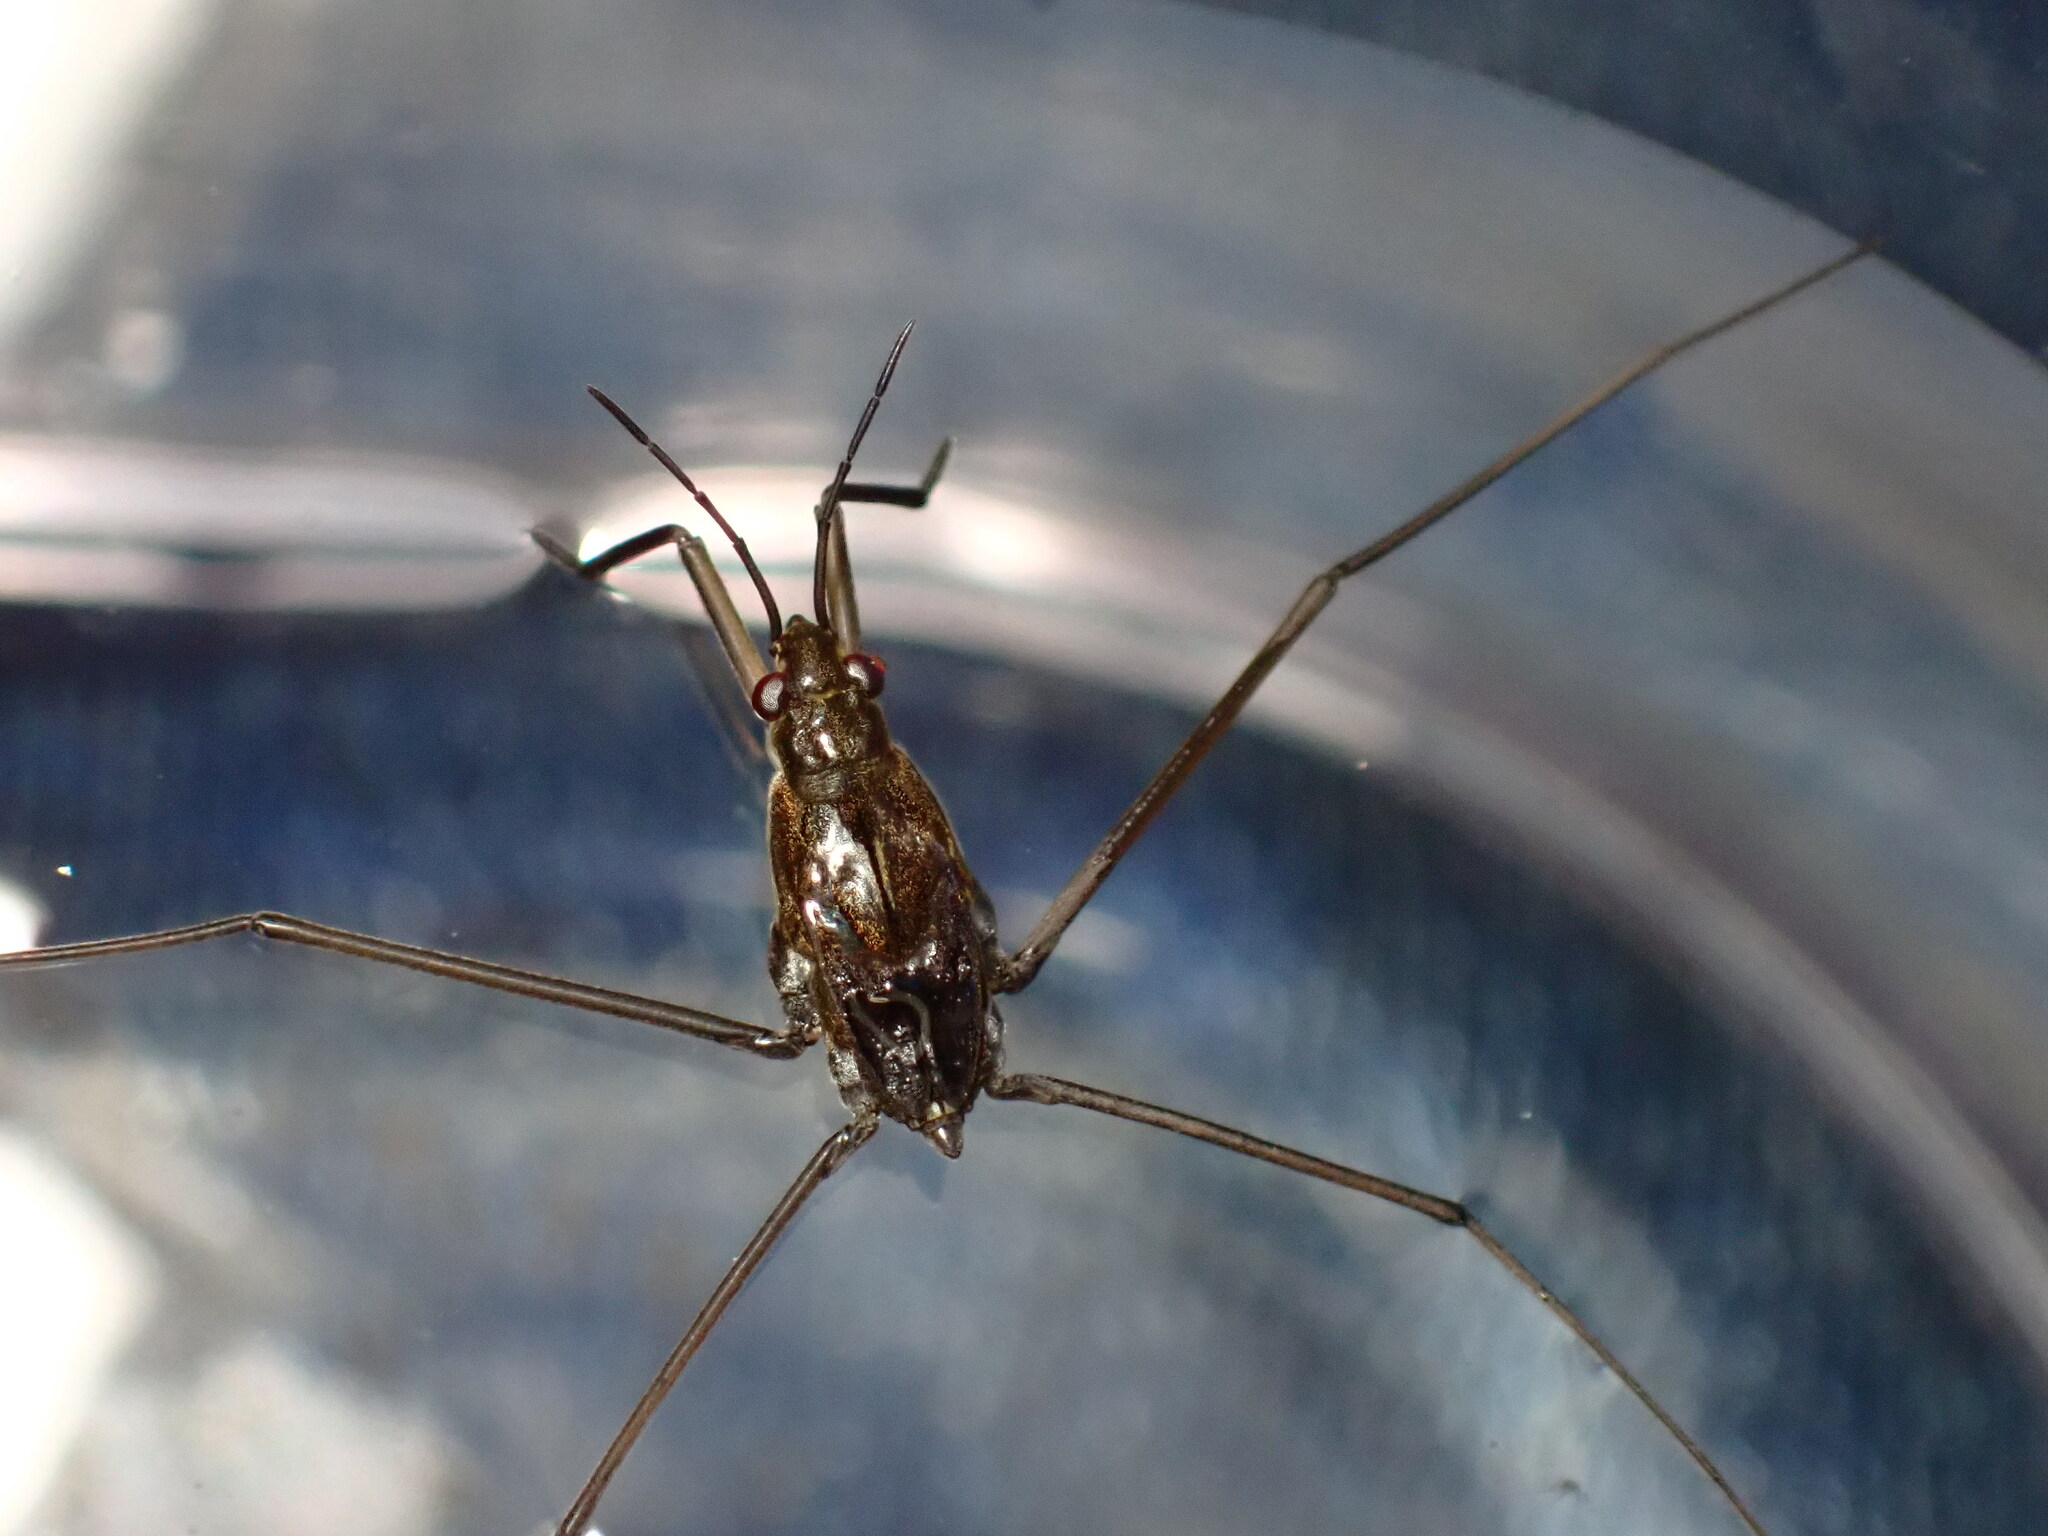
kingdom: Animalia
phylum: Arthropoda
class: Insecta
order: Hemiptera
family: Gerridae
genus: Aquarius
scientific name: Aquarius remigis
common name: Common water strider
